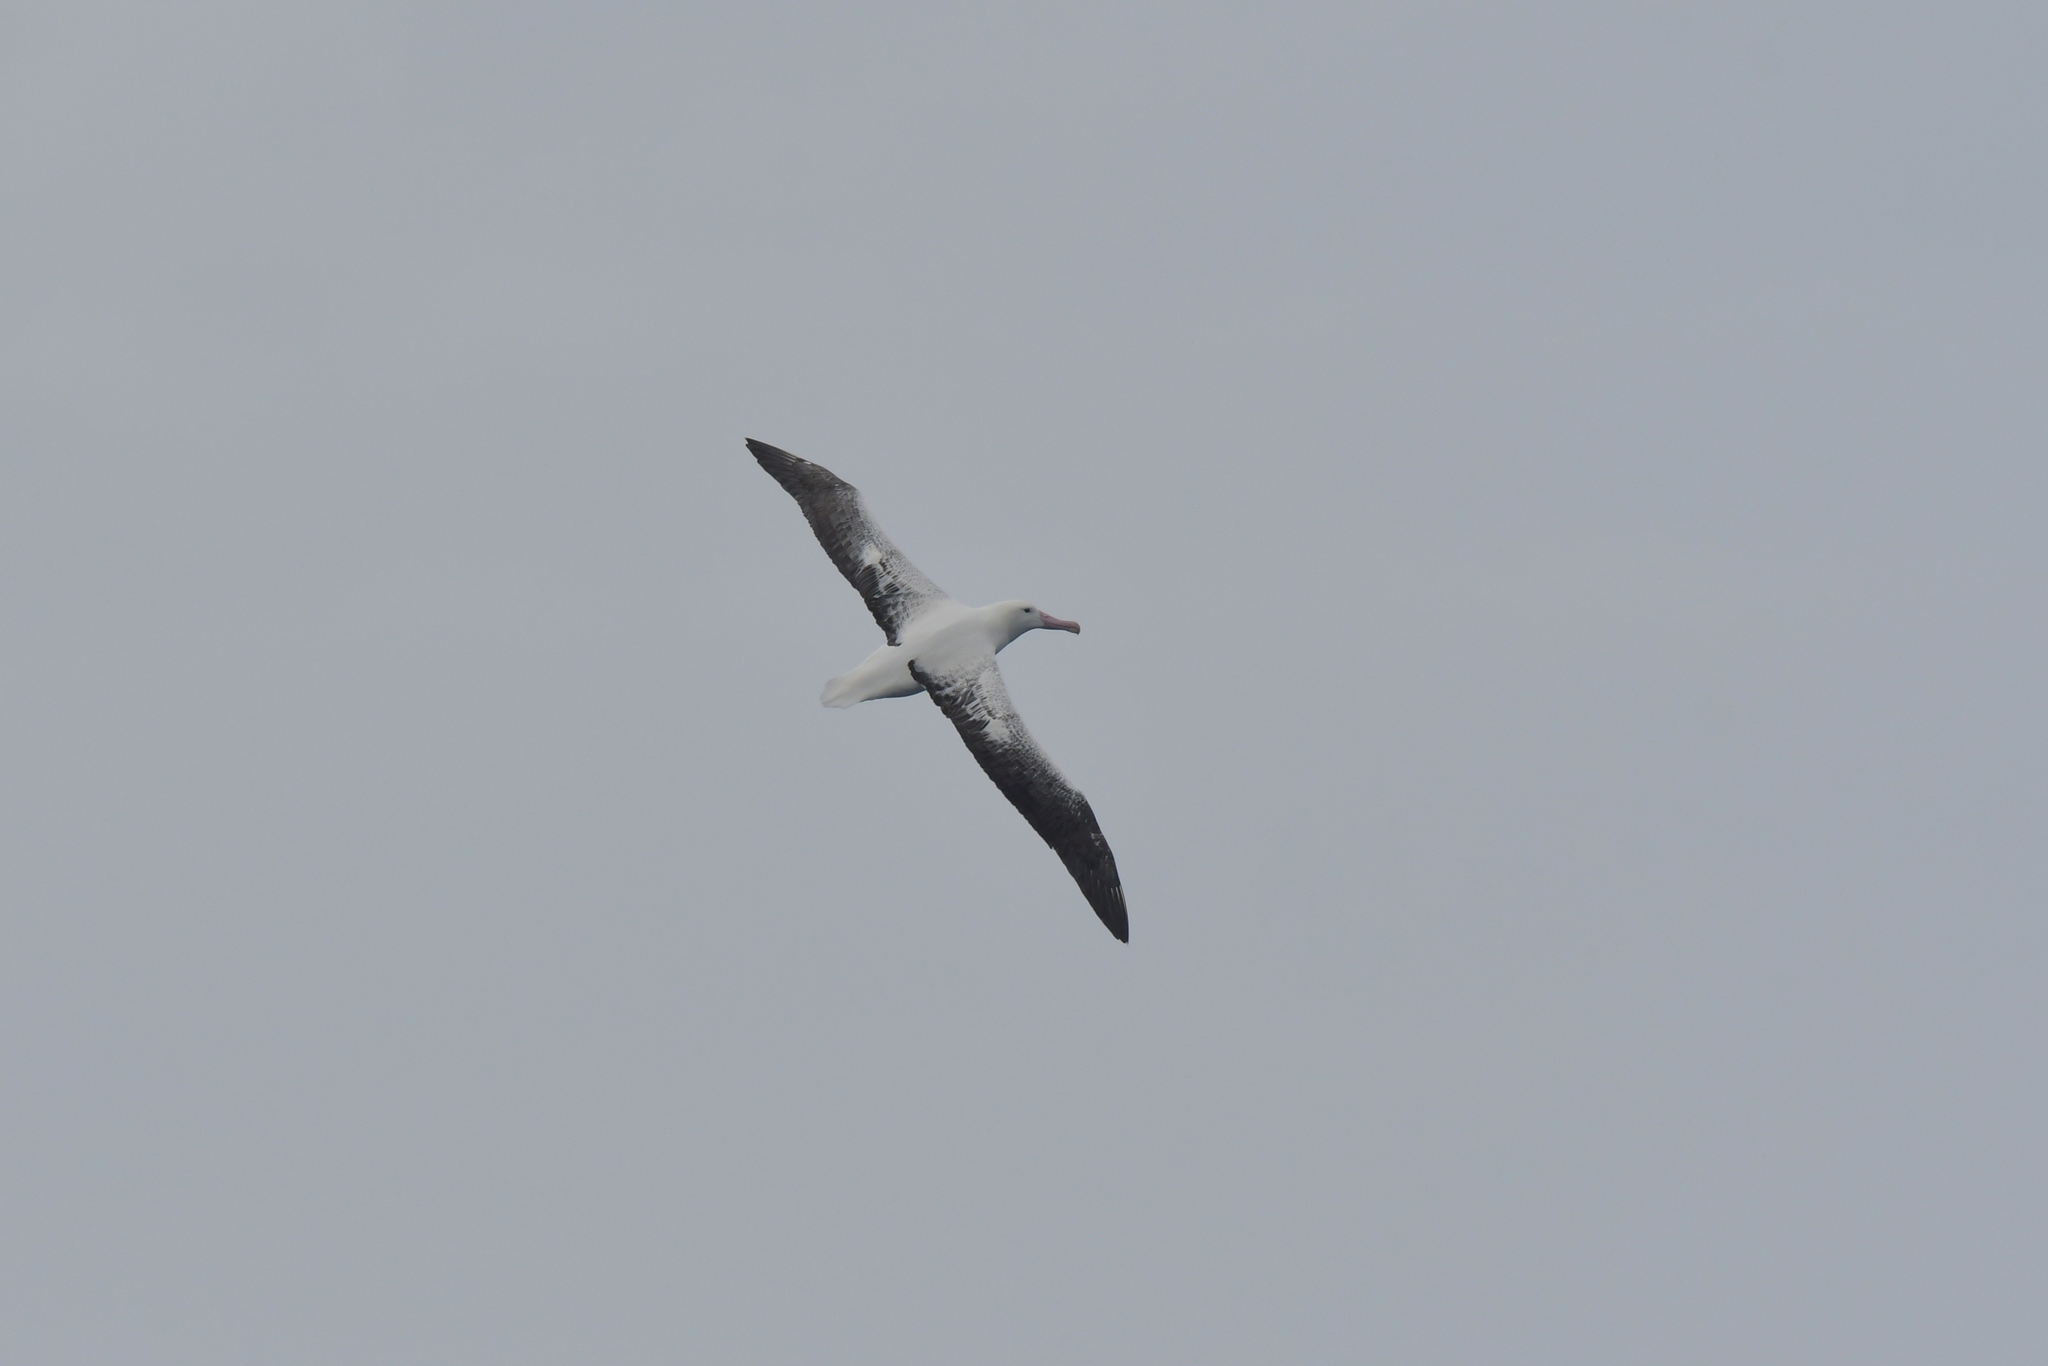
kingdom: Animalia
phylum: Chordata
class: Aves
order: Procellariiformes
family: Diomedeidae
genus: Diomedea
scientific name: Diomedea epomophora
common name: Southern royal albatross
